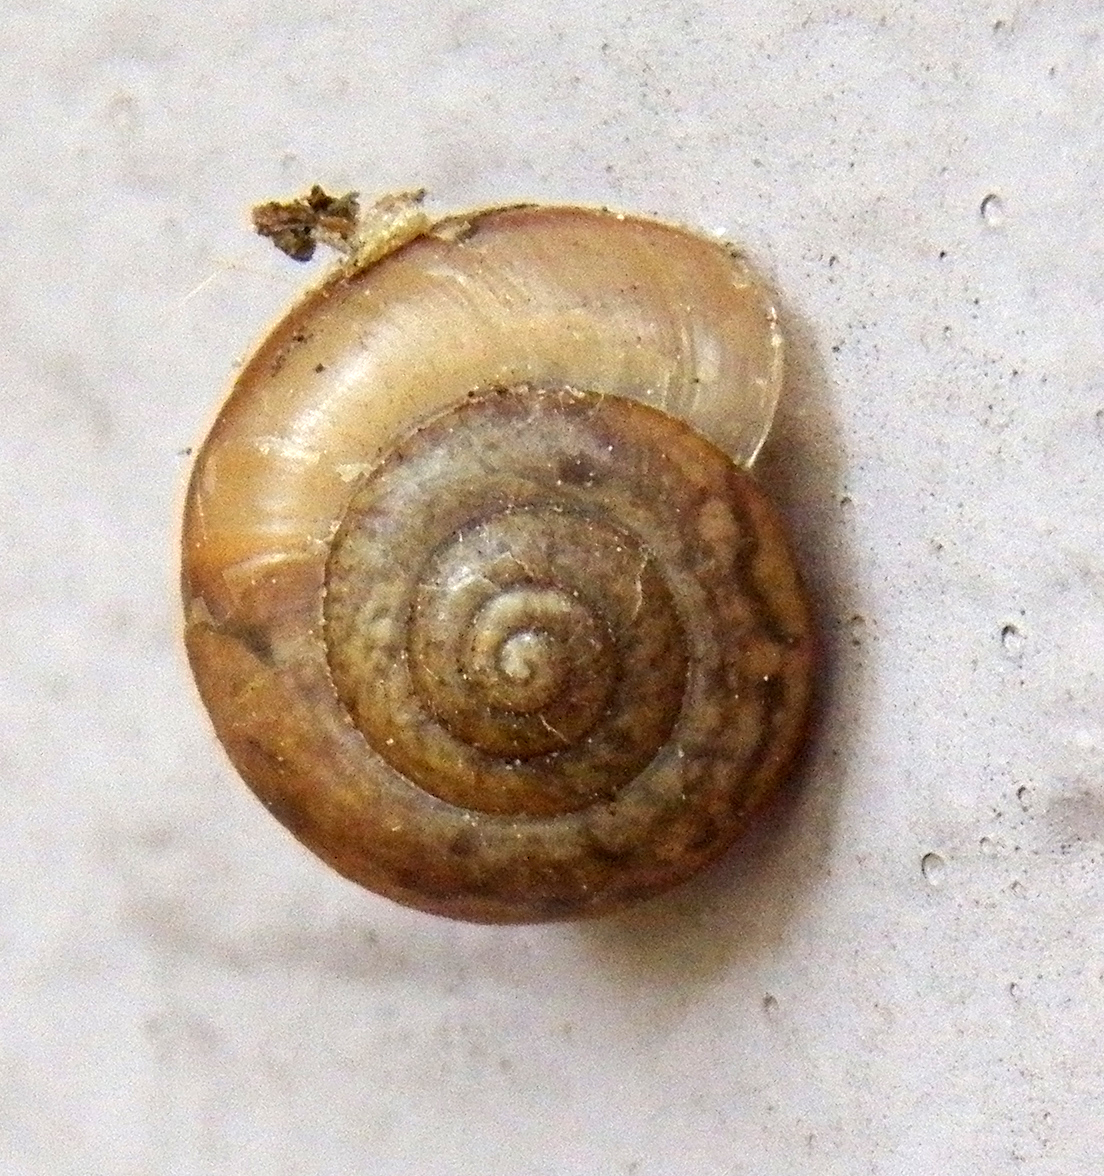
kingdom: Animalia
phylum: Mollusca
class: Gastropoda
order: Stylommatophora
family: Camaenidae
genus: Bradybaena
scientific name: Bradybaena similaris
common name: Asian trampsnail
